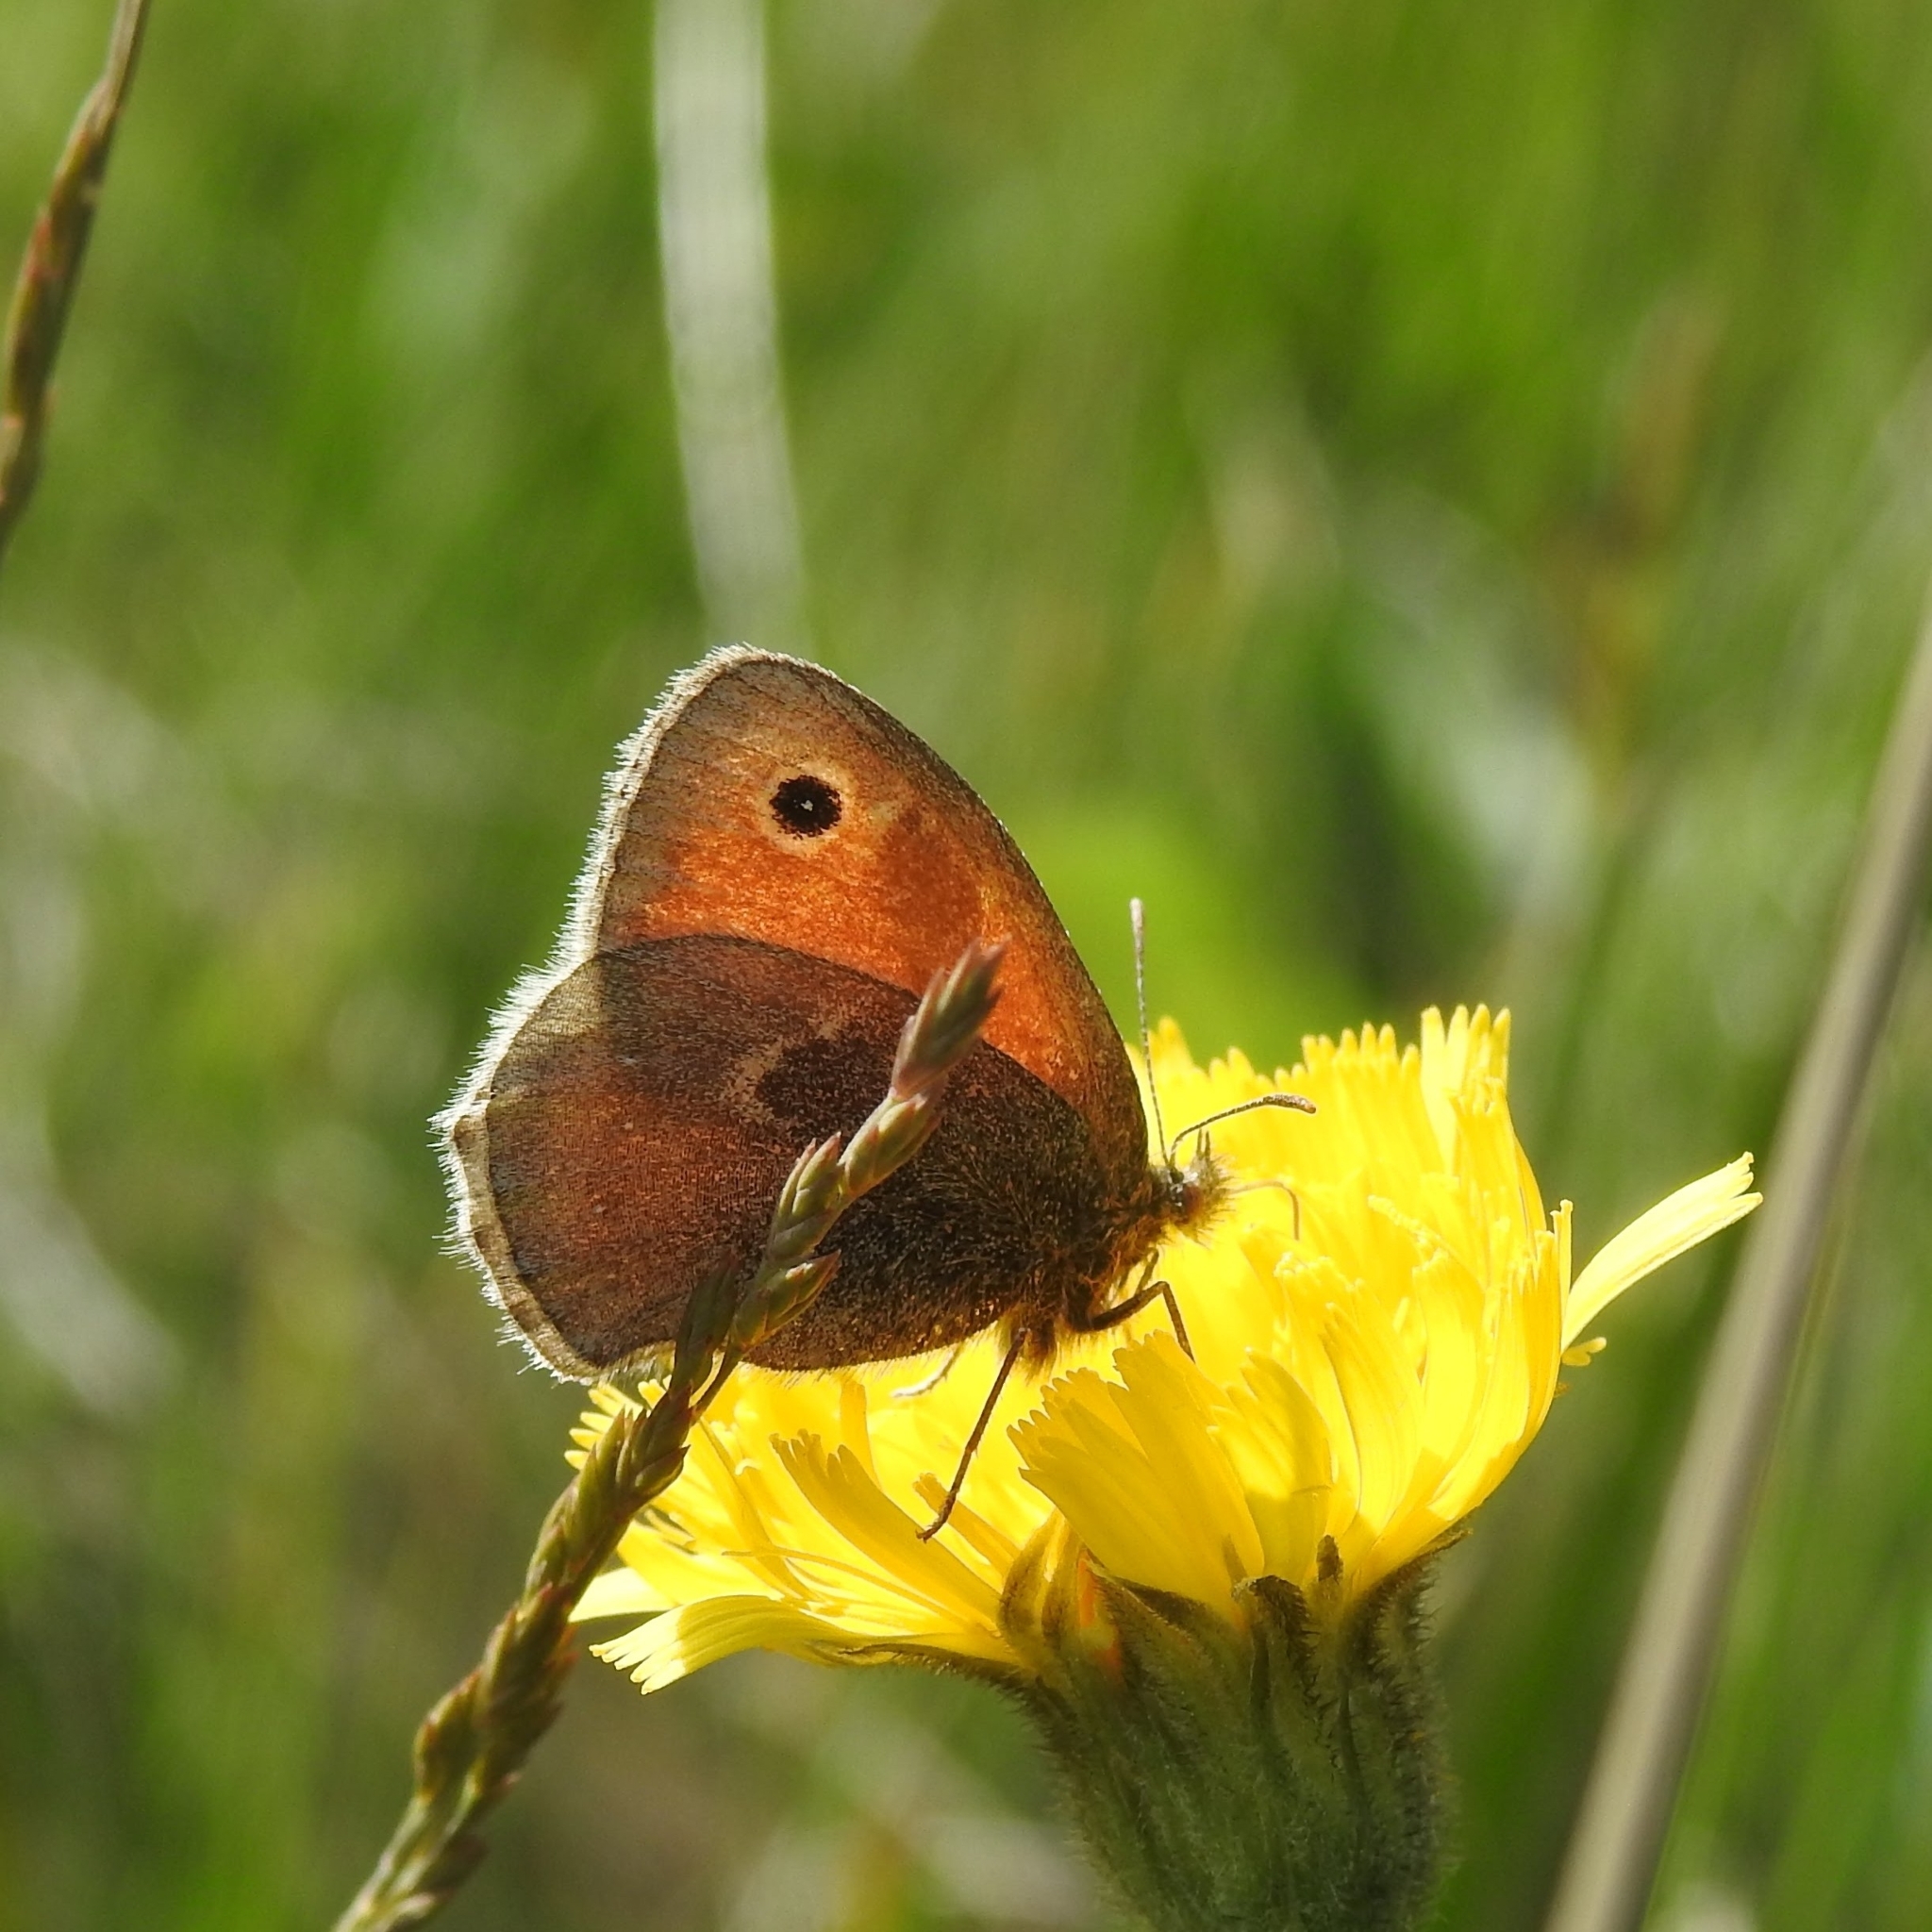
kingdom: Animalia
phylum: Arthropoda
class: Insecta
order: Lepidoptera
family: Nymphalidae
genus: Coenonympha
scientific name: Coenonympha pamphilus
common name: Small heath
